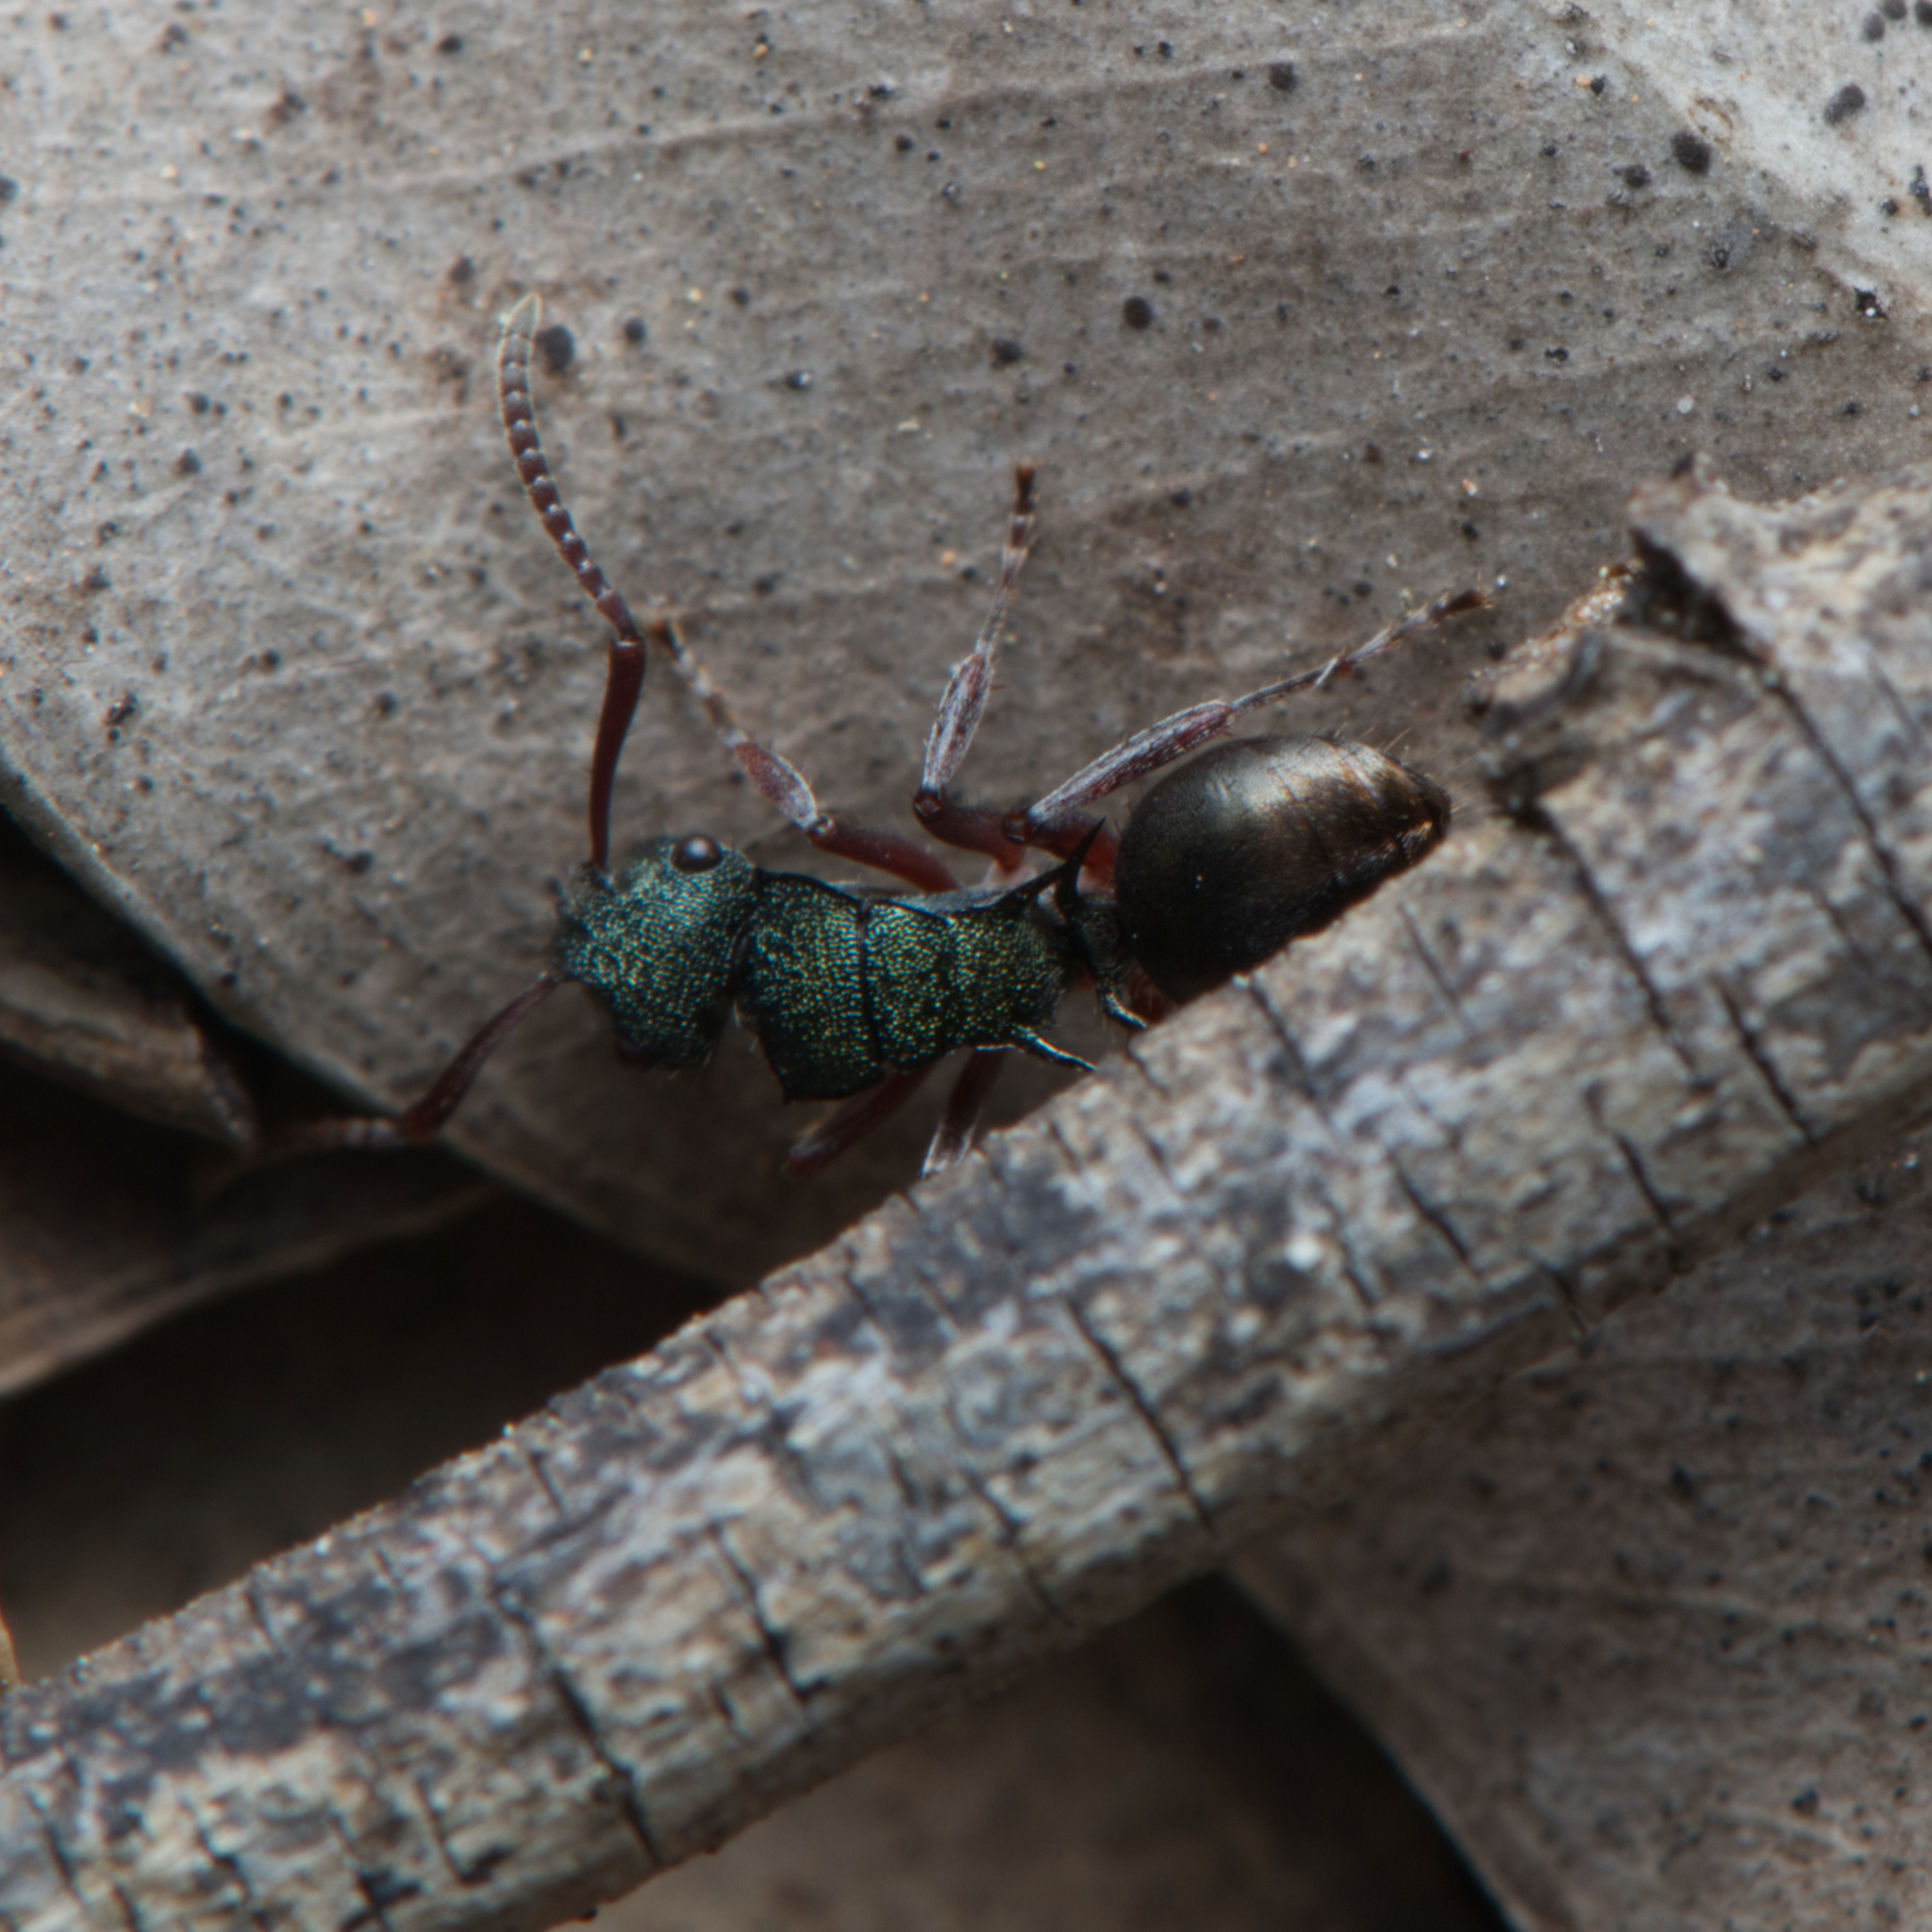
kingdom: Animalia
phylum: Arthropoda
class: Insecta
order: Hymenoptera
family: Formicidae
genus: Polyrhachis
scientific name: Polyrhachis hookeri
